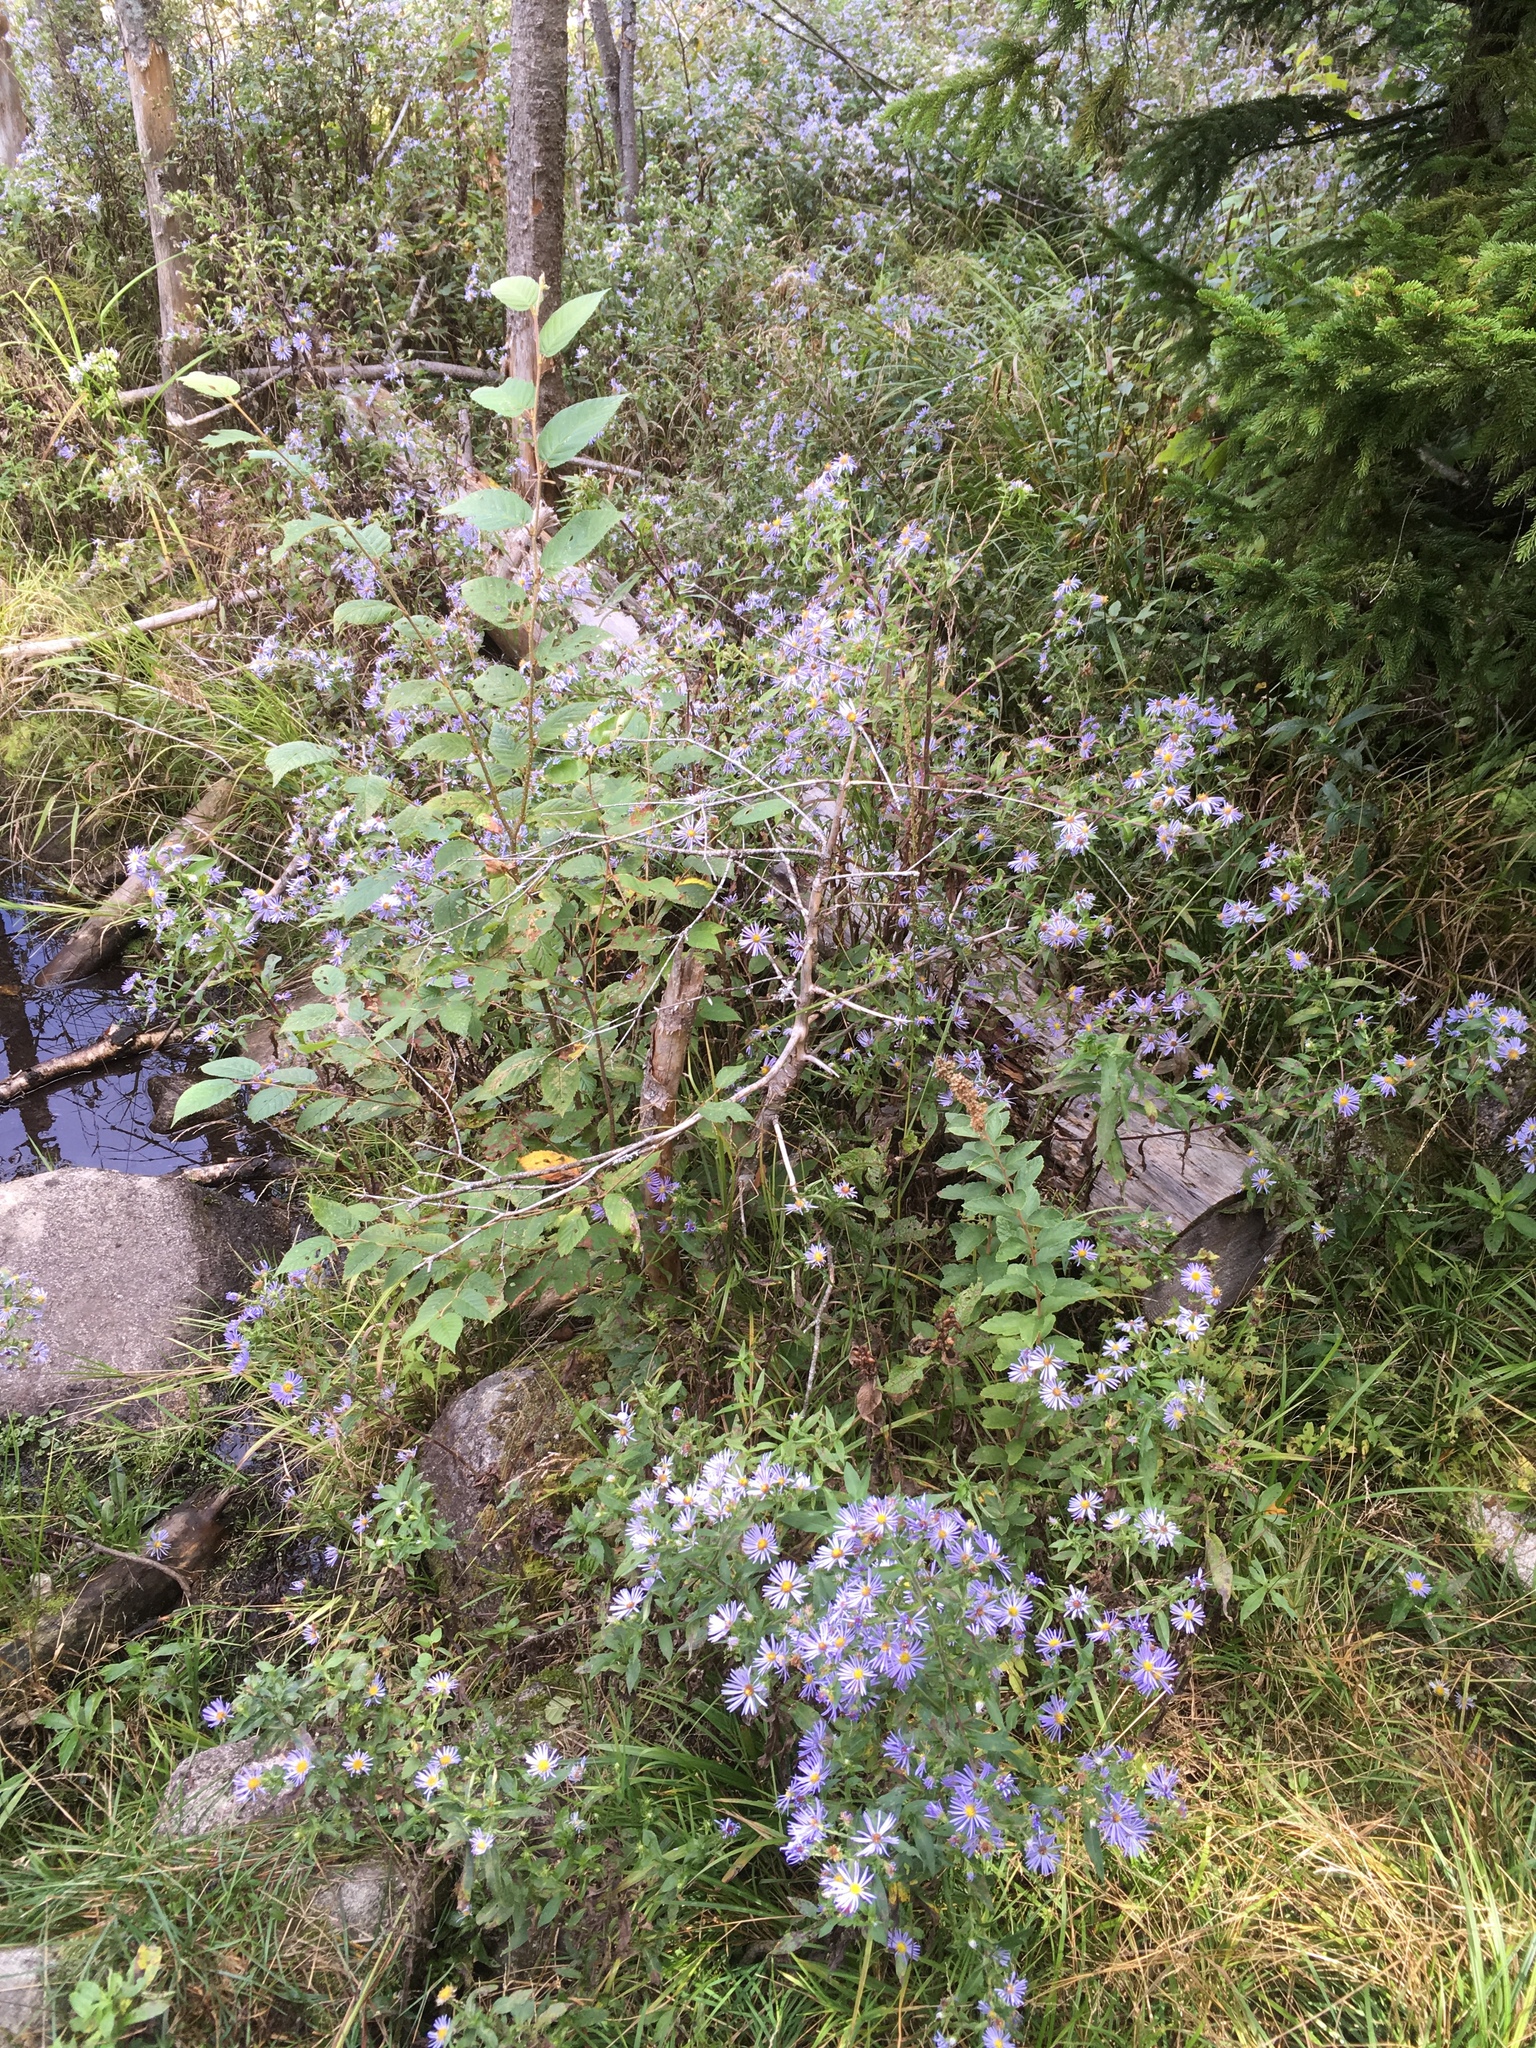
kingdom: Plantae
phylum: Tracheophyta
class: Magnoliopsida
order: Asterales
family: Asteraceae
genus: Symphyotrichum
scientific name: Symphyotrichum puniceum
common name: Bog aster
